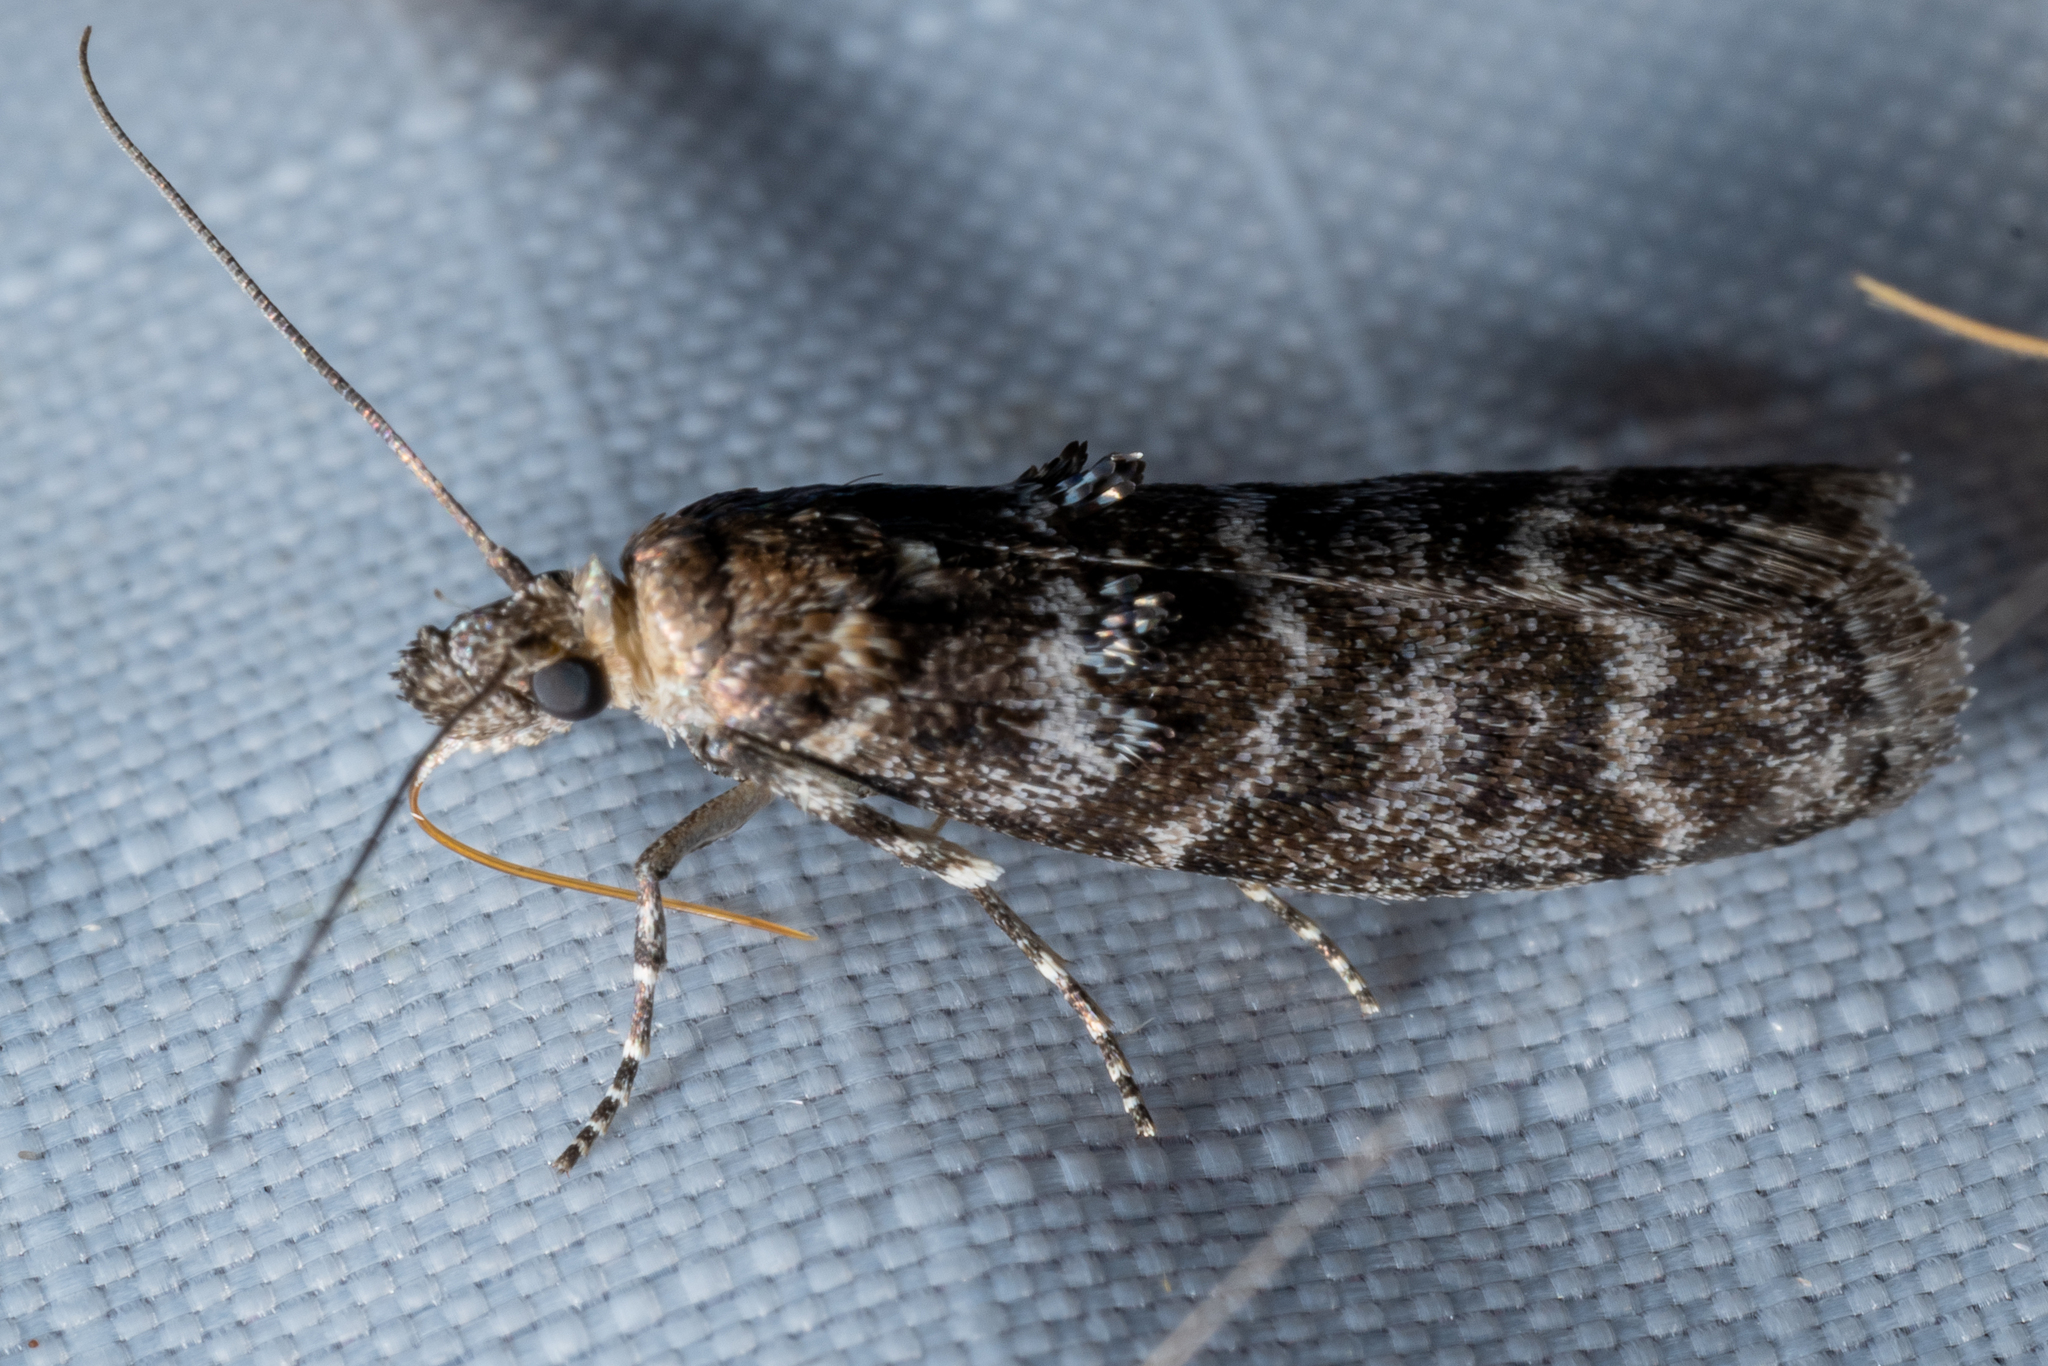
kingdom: Animalia
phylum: Arthropoda
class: Insecta
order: Lepidoptera
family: Pyralidae
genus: Ortholepis
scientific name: Ortholepis pasadamia
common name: Striped birch pyralid moth
